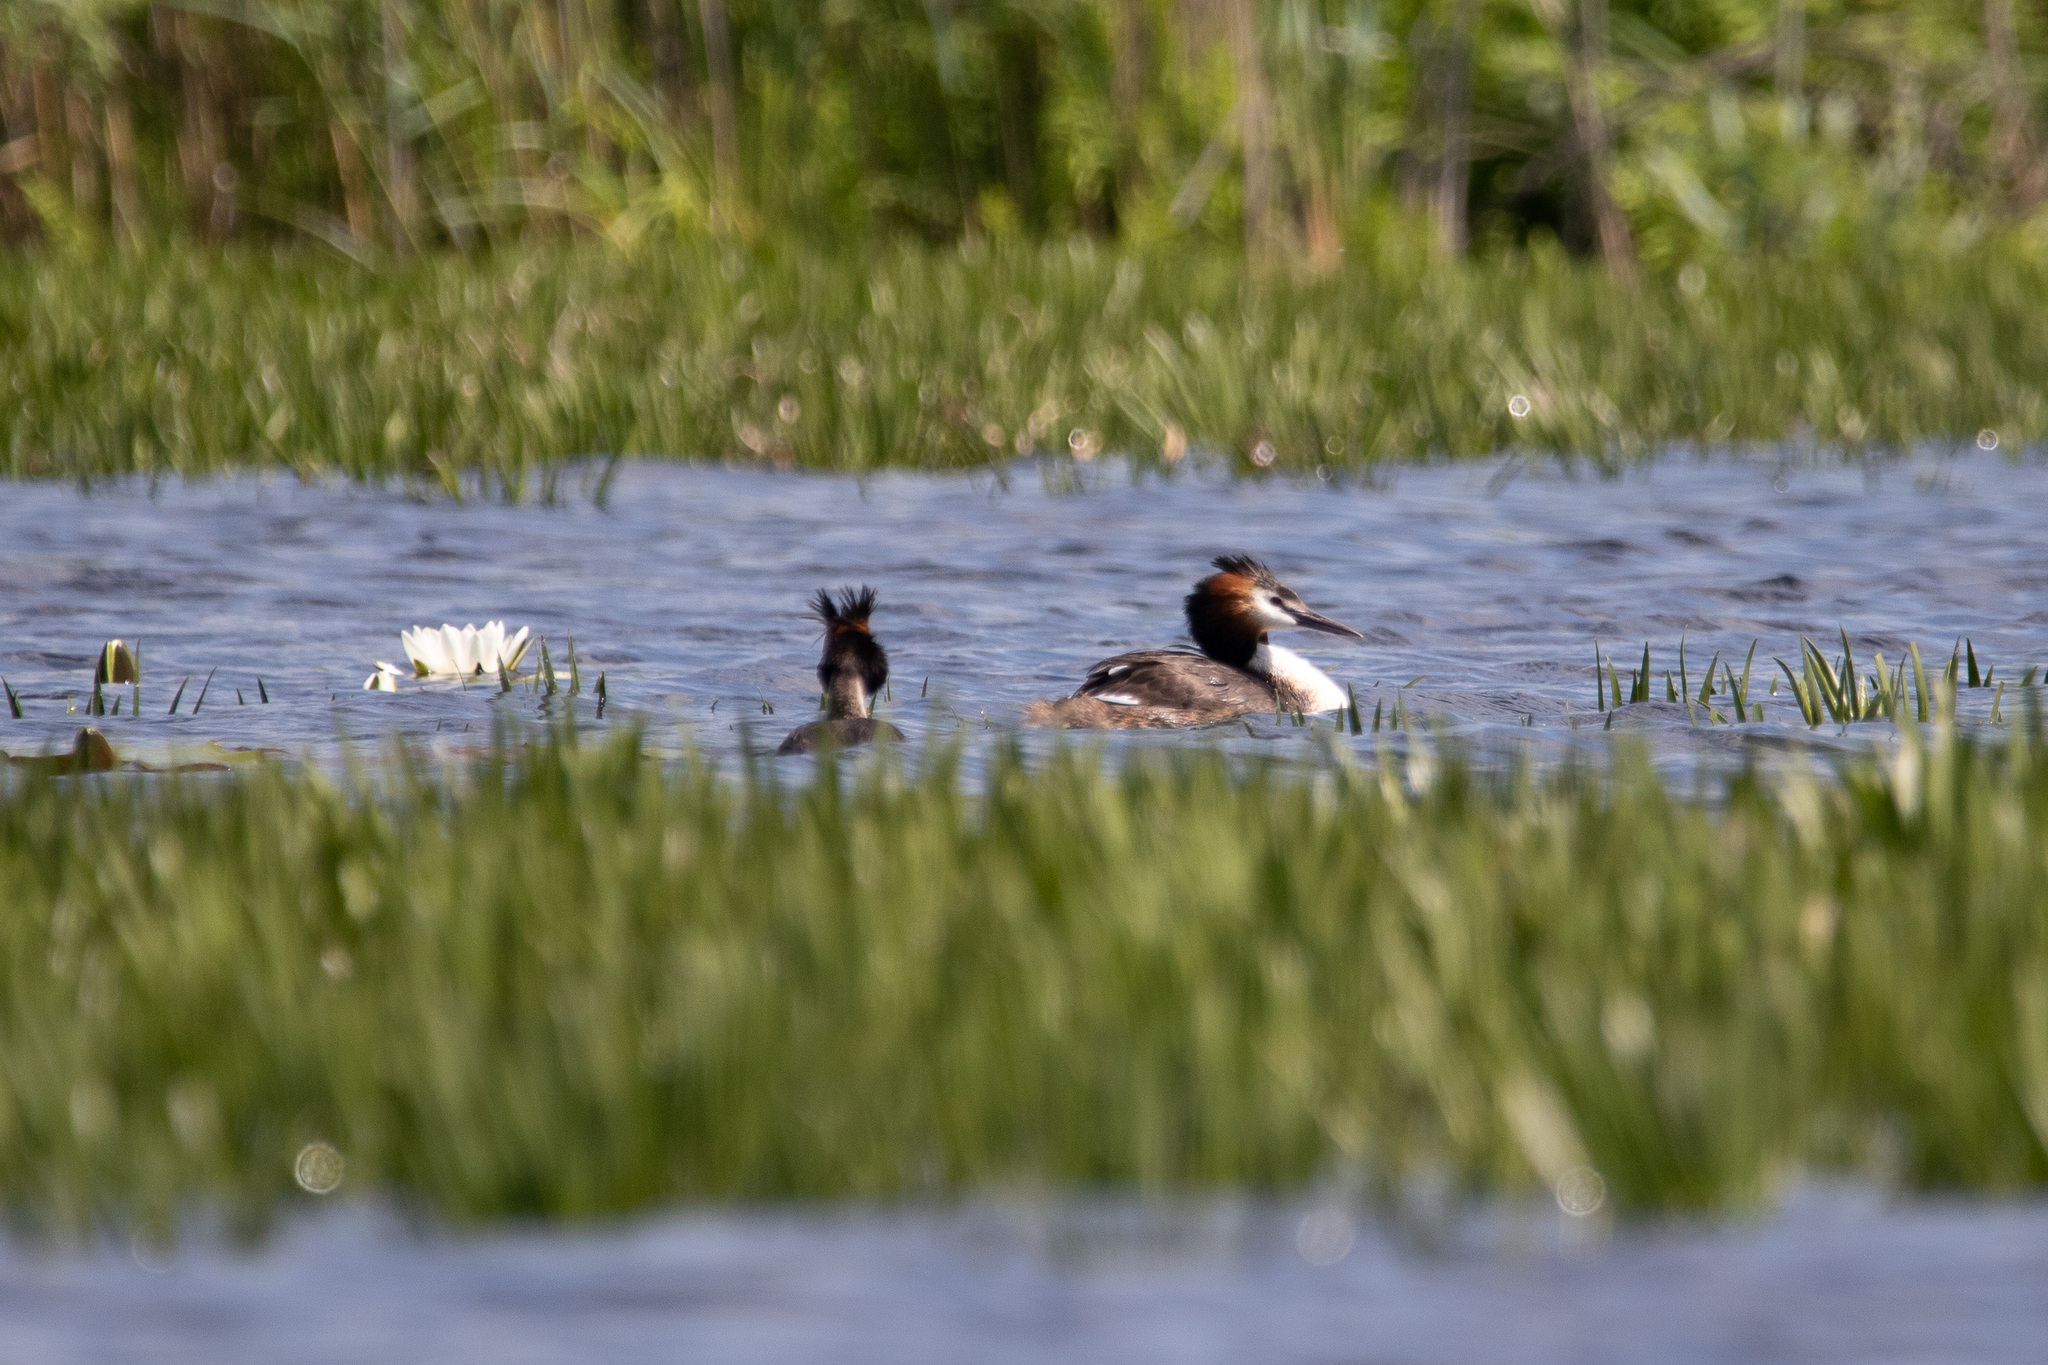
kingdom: Animalia
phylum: Chordata
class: Aves
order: Podicipediformes
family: Podicipedidae
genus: Podiceps
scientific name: Podiceps cristatus
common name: Great crested grebe
